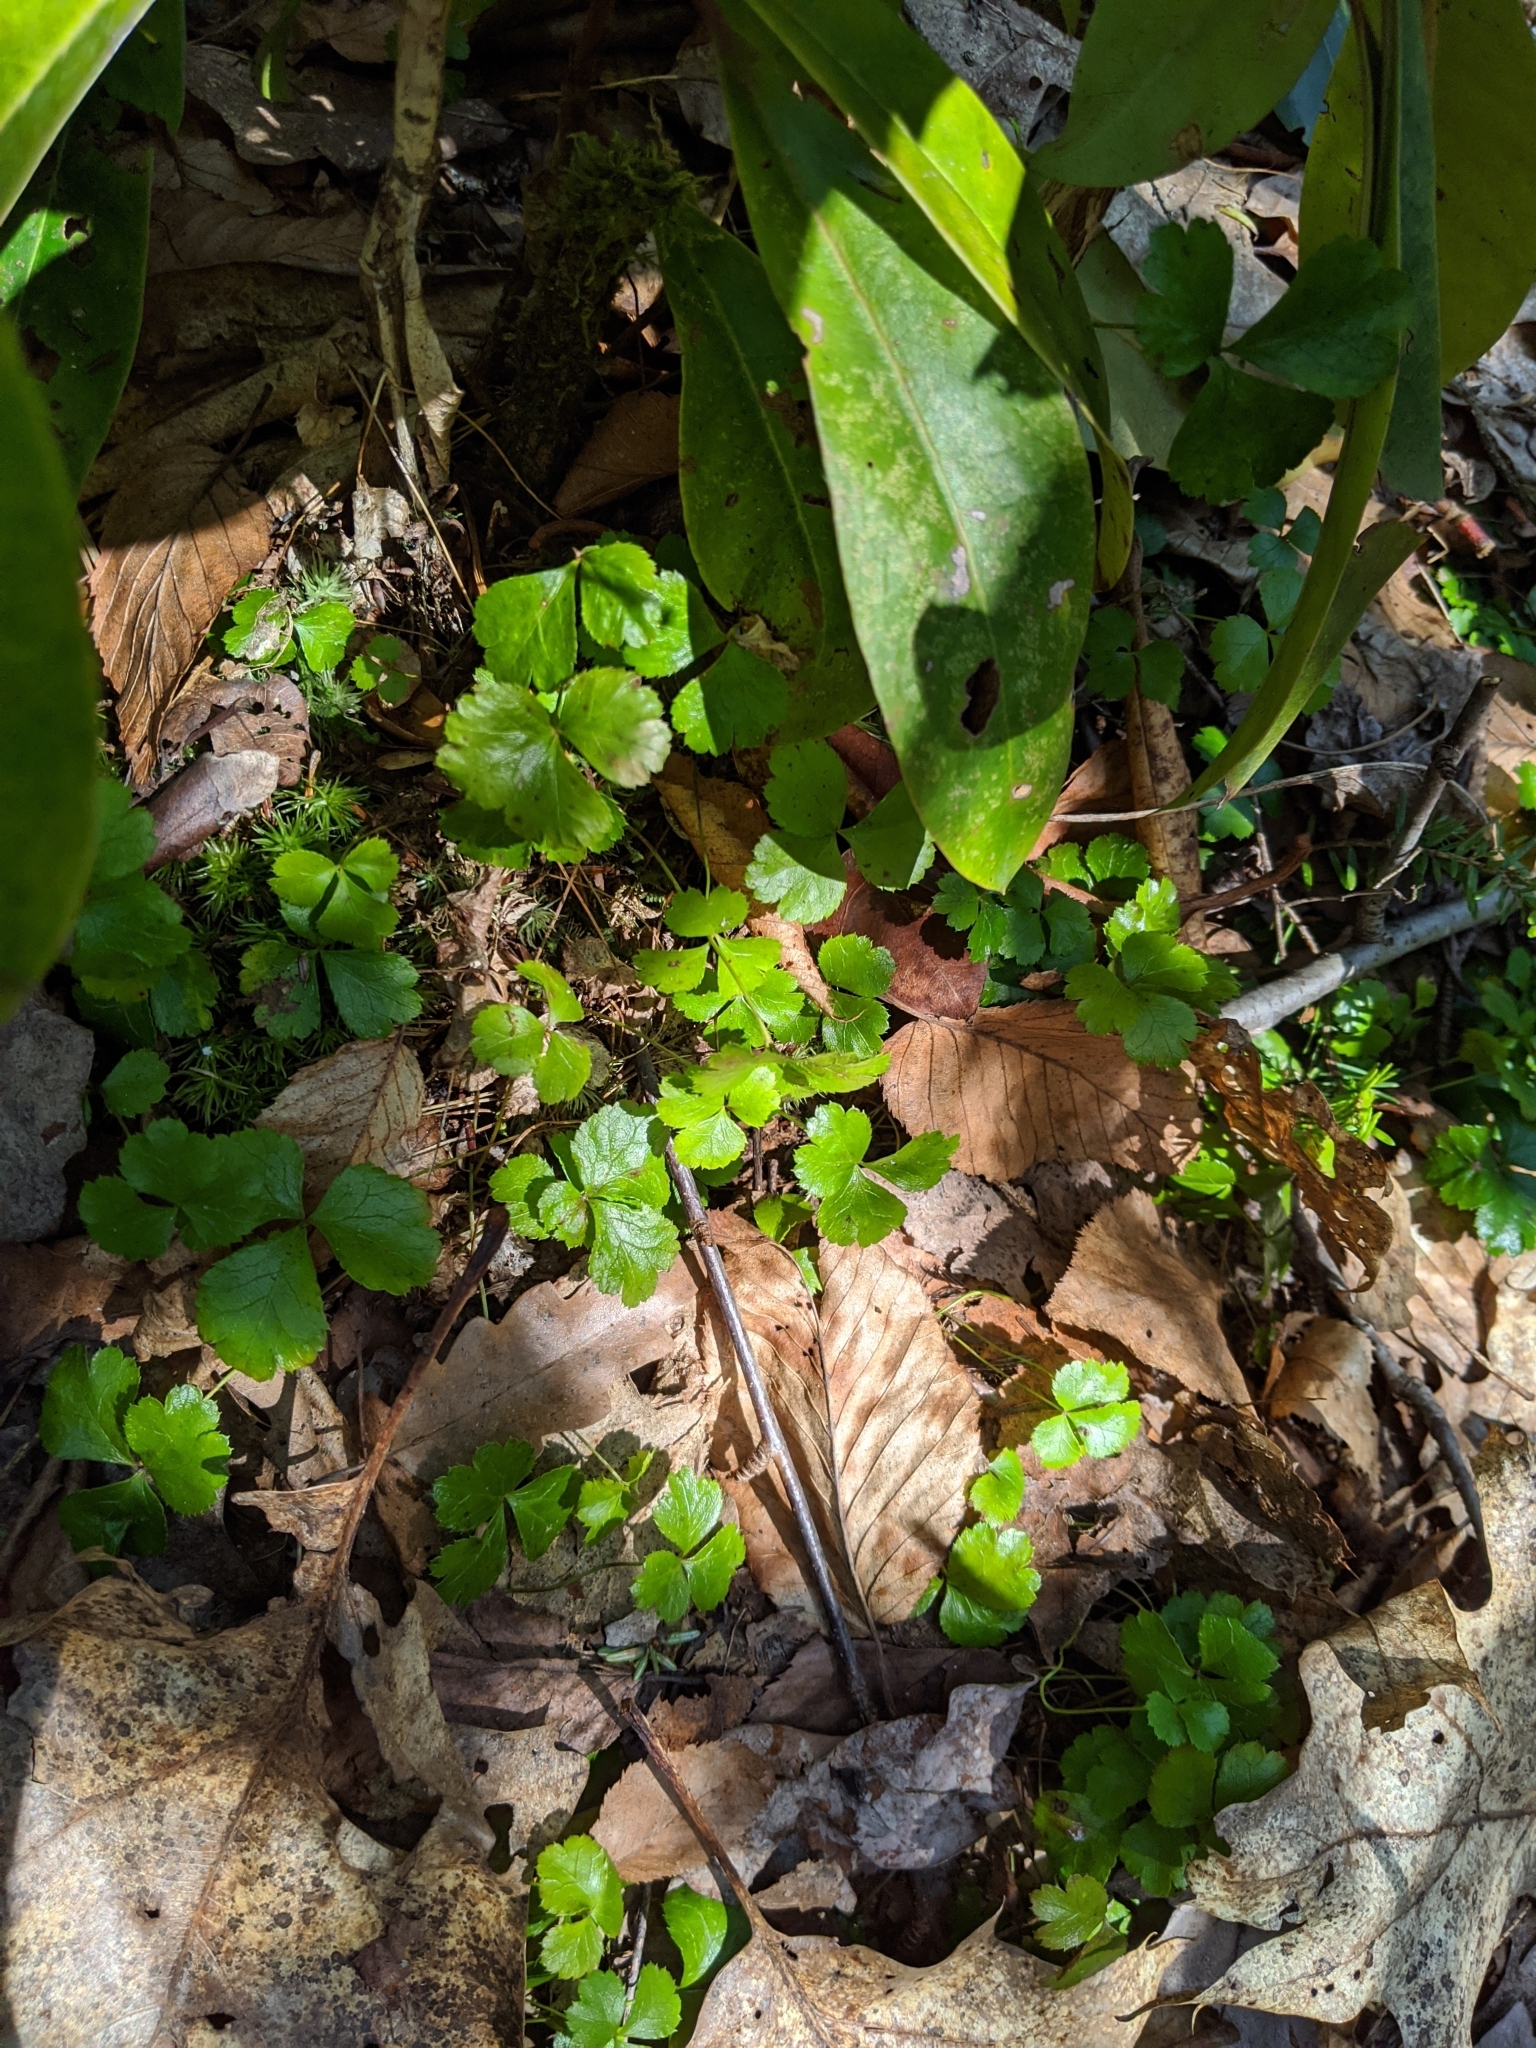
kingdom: Plantae
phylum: Tracheophyta
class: Magnoliopsida
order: Ranunculales
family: Ranunculaceae
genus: Coptis
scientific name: Coptis trifolia
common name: Canker-root
